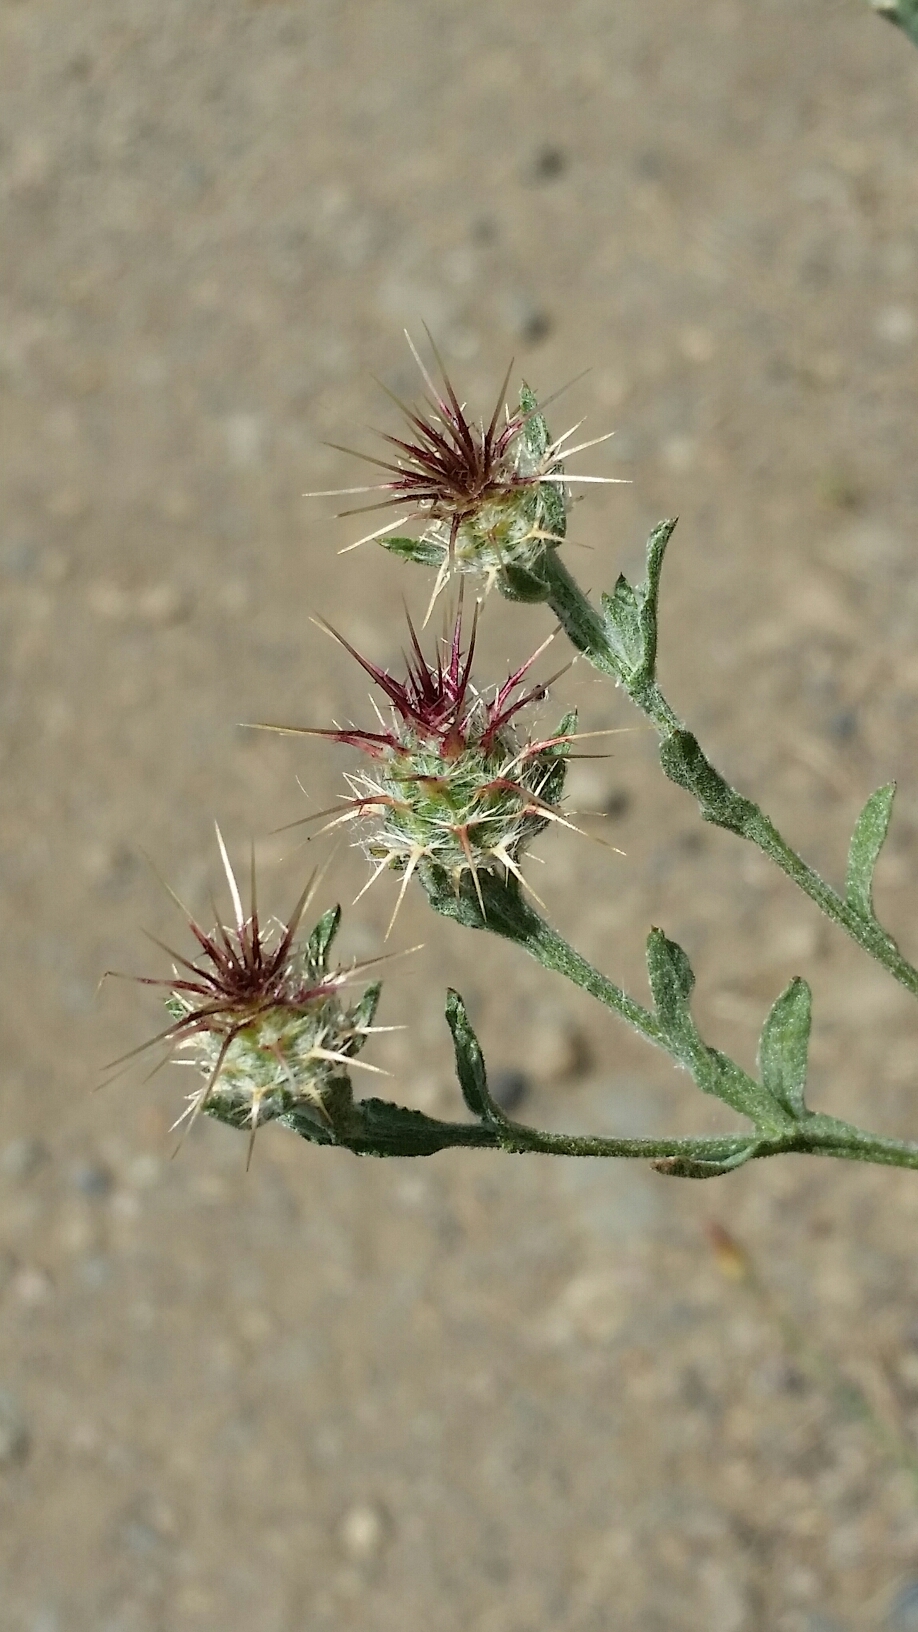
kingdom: Plantae
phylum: Tracheophyta
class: Magnoliopsida
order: Asterales
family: Asteraceae
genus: Centaurea
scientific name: Centaurea melitensis
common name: Maltese star-thistle
